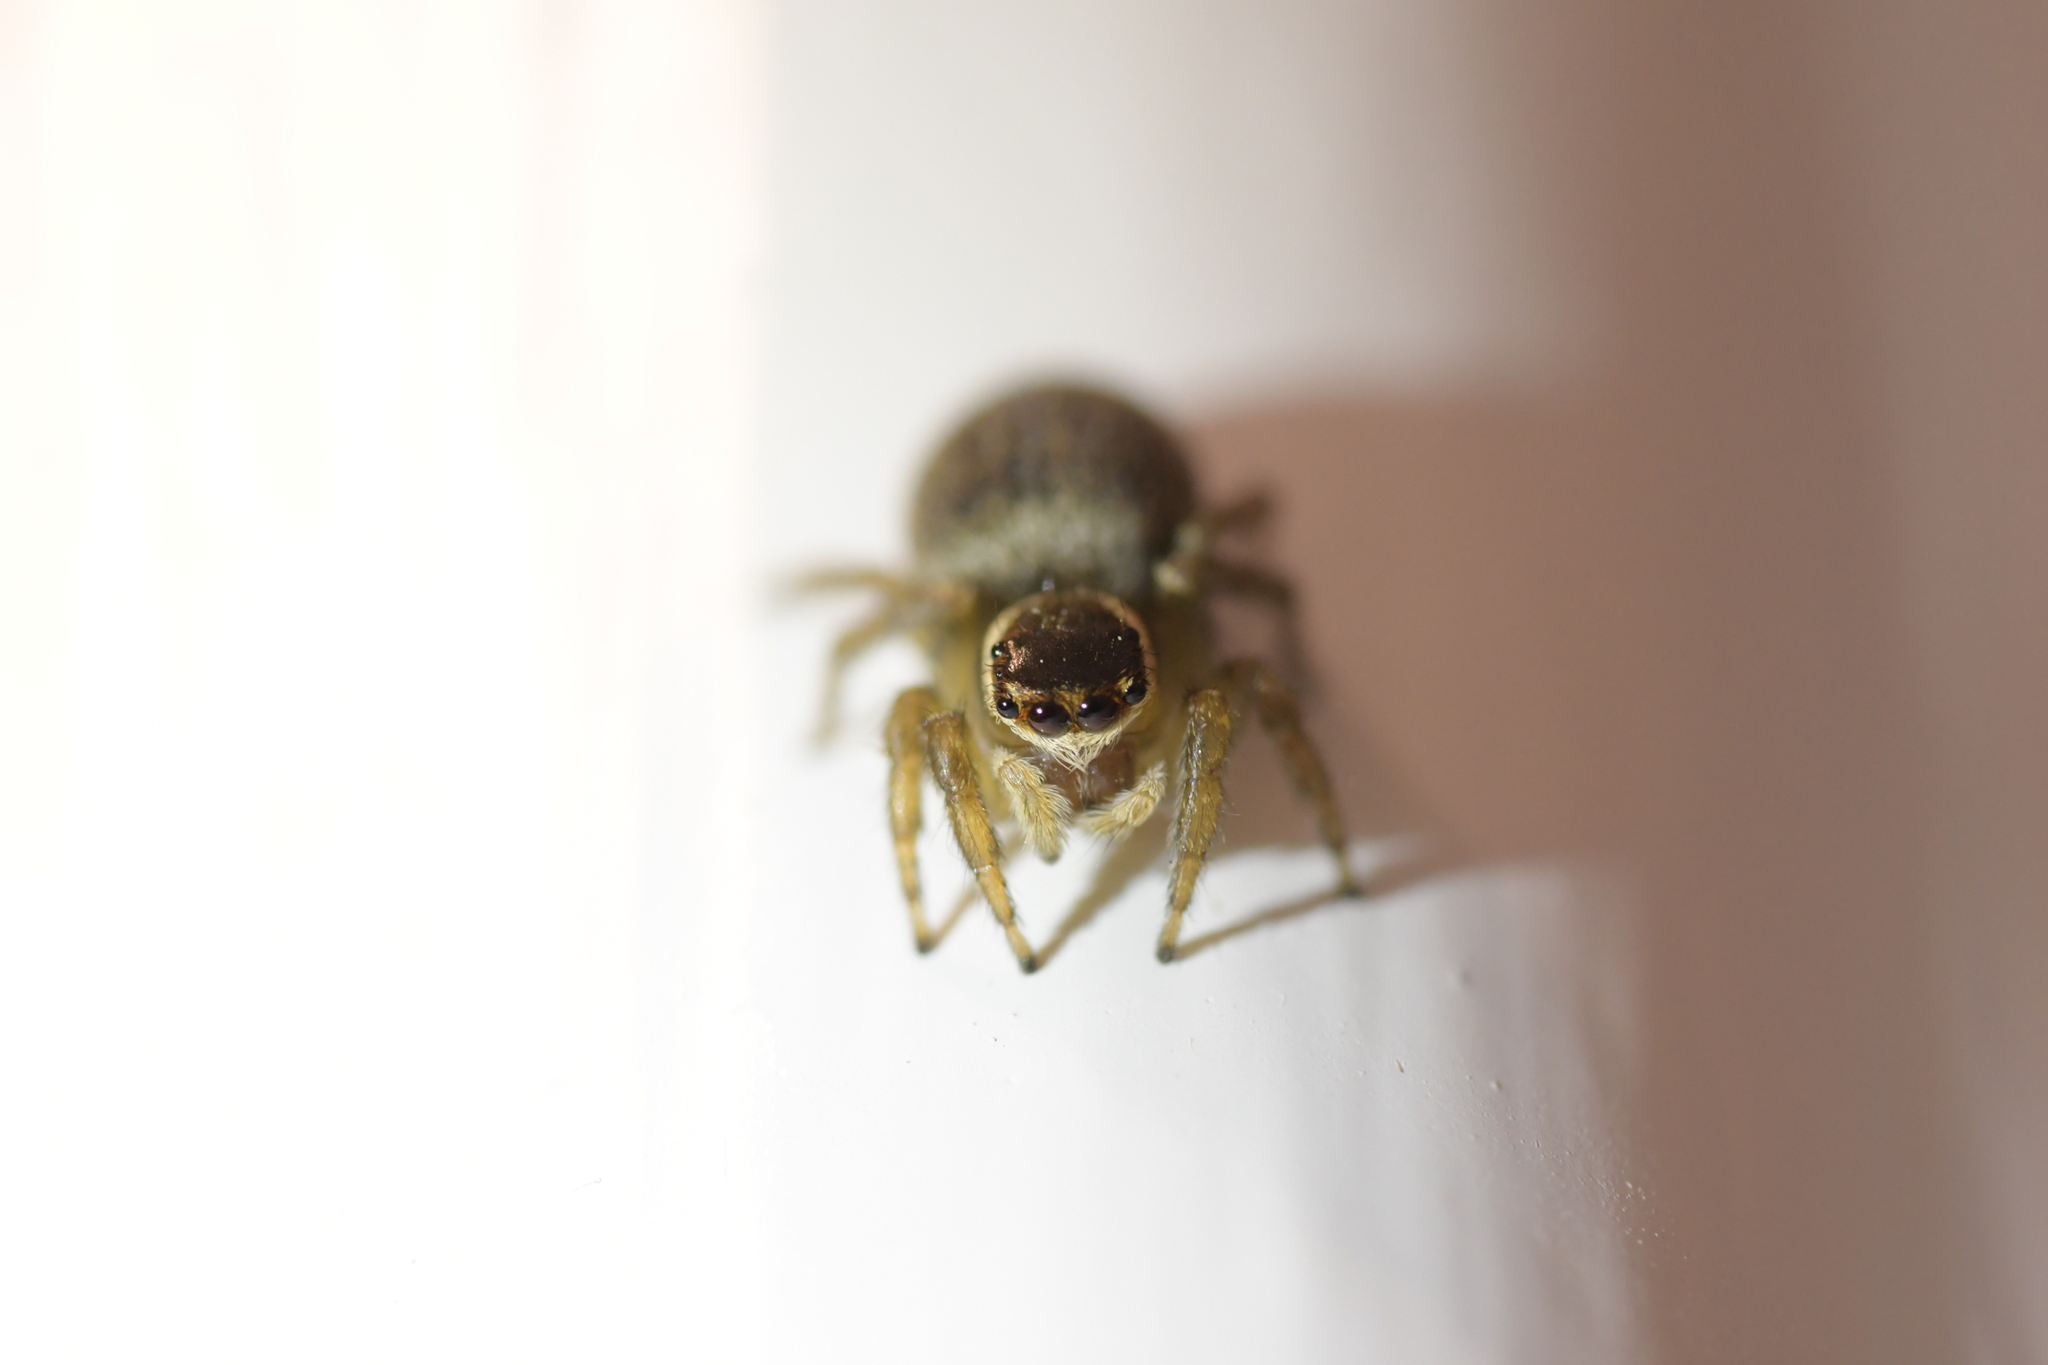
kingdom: Animalia
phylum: Arthropoda
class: Arachnida
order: Araneae
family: Salticidae
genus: Maratus
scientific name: Maratus griseus
